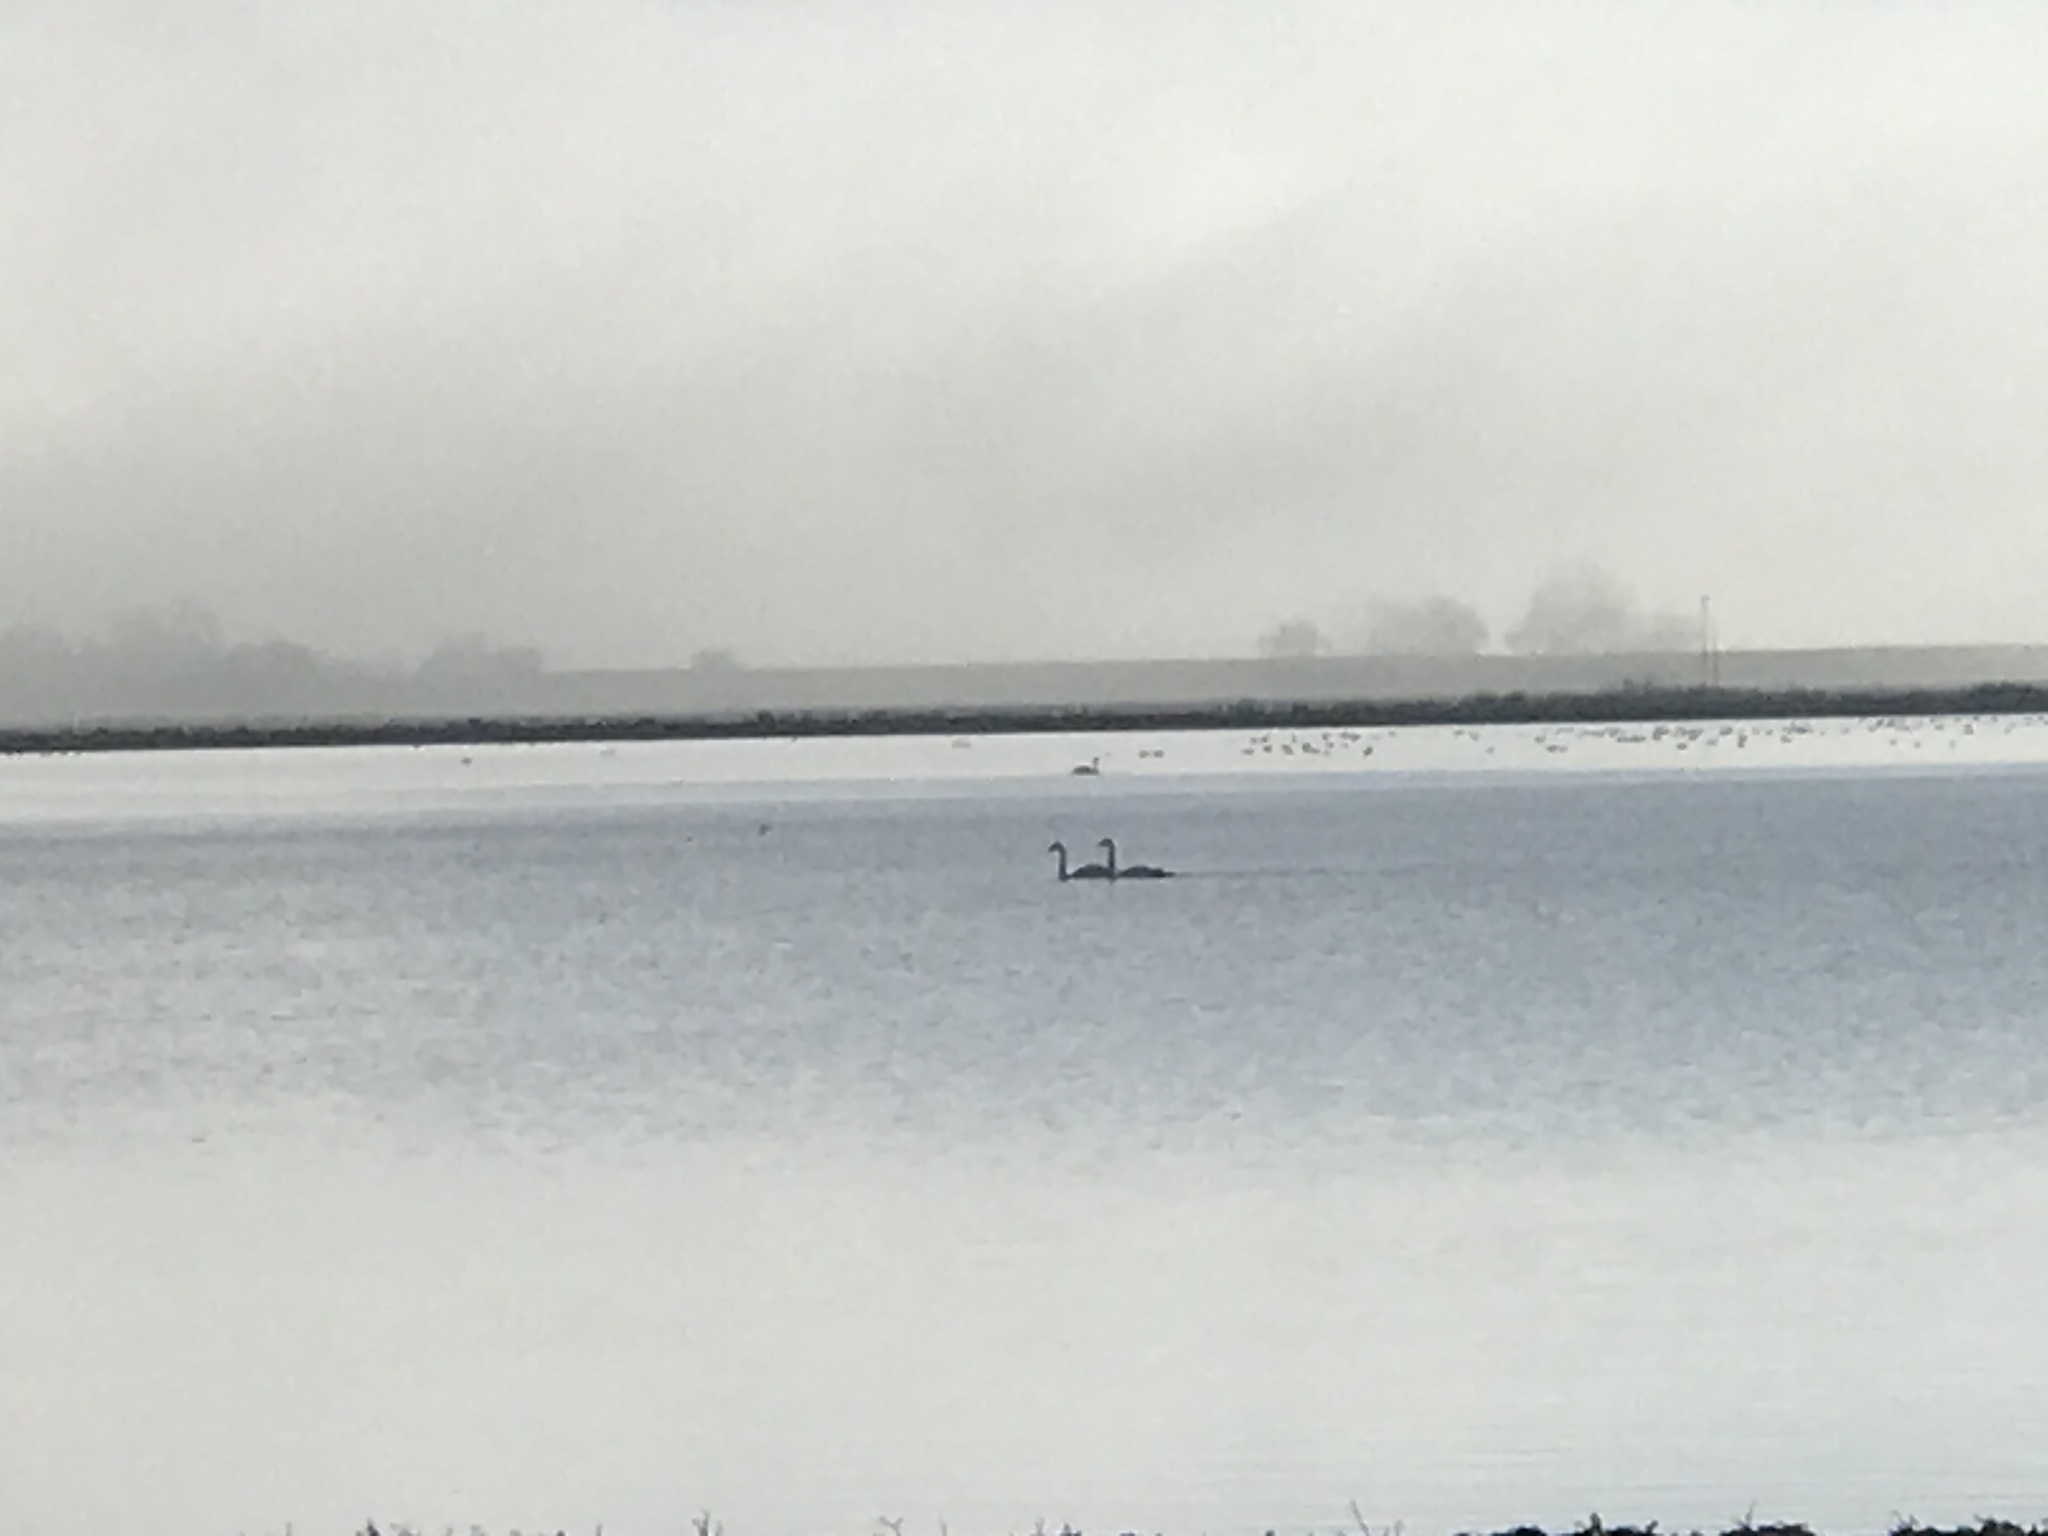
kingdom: Animalia
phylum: Chordata
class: Aves
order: Anseriformes
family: Anatidae
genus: Cygnus
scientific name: Cygnus columbianus
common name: Tundra swan
